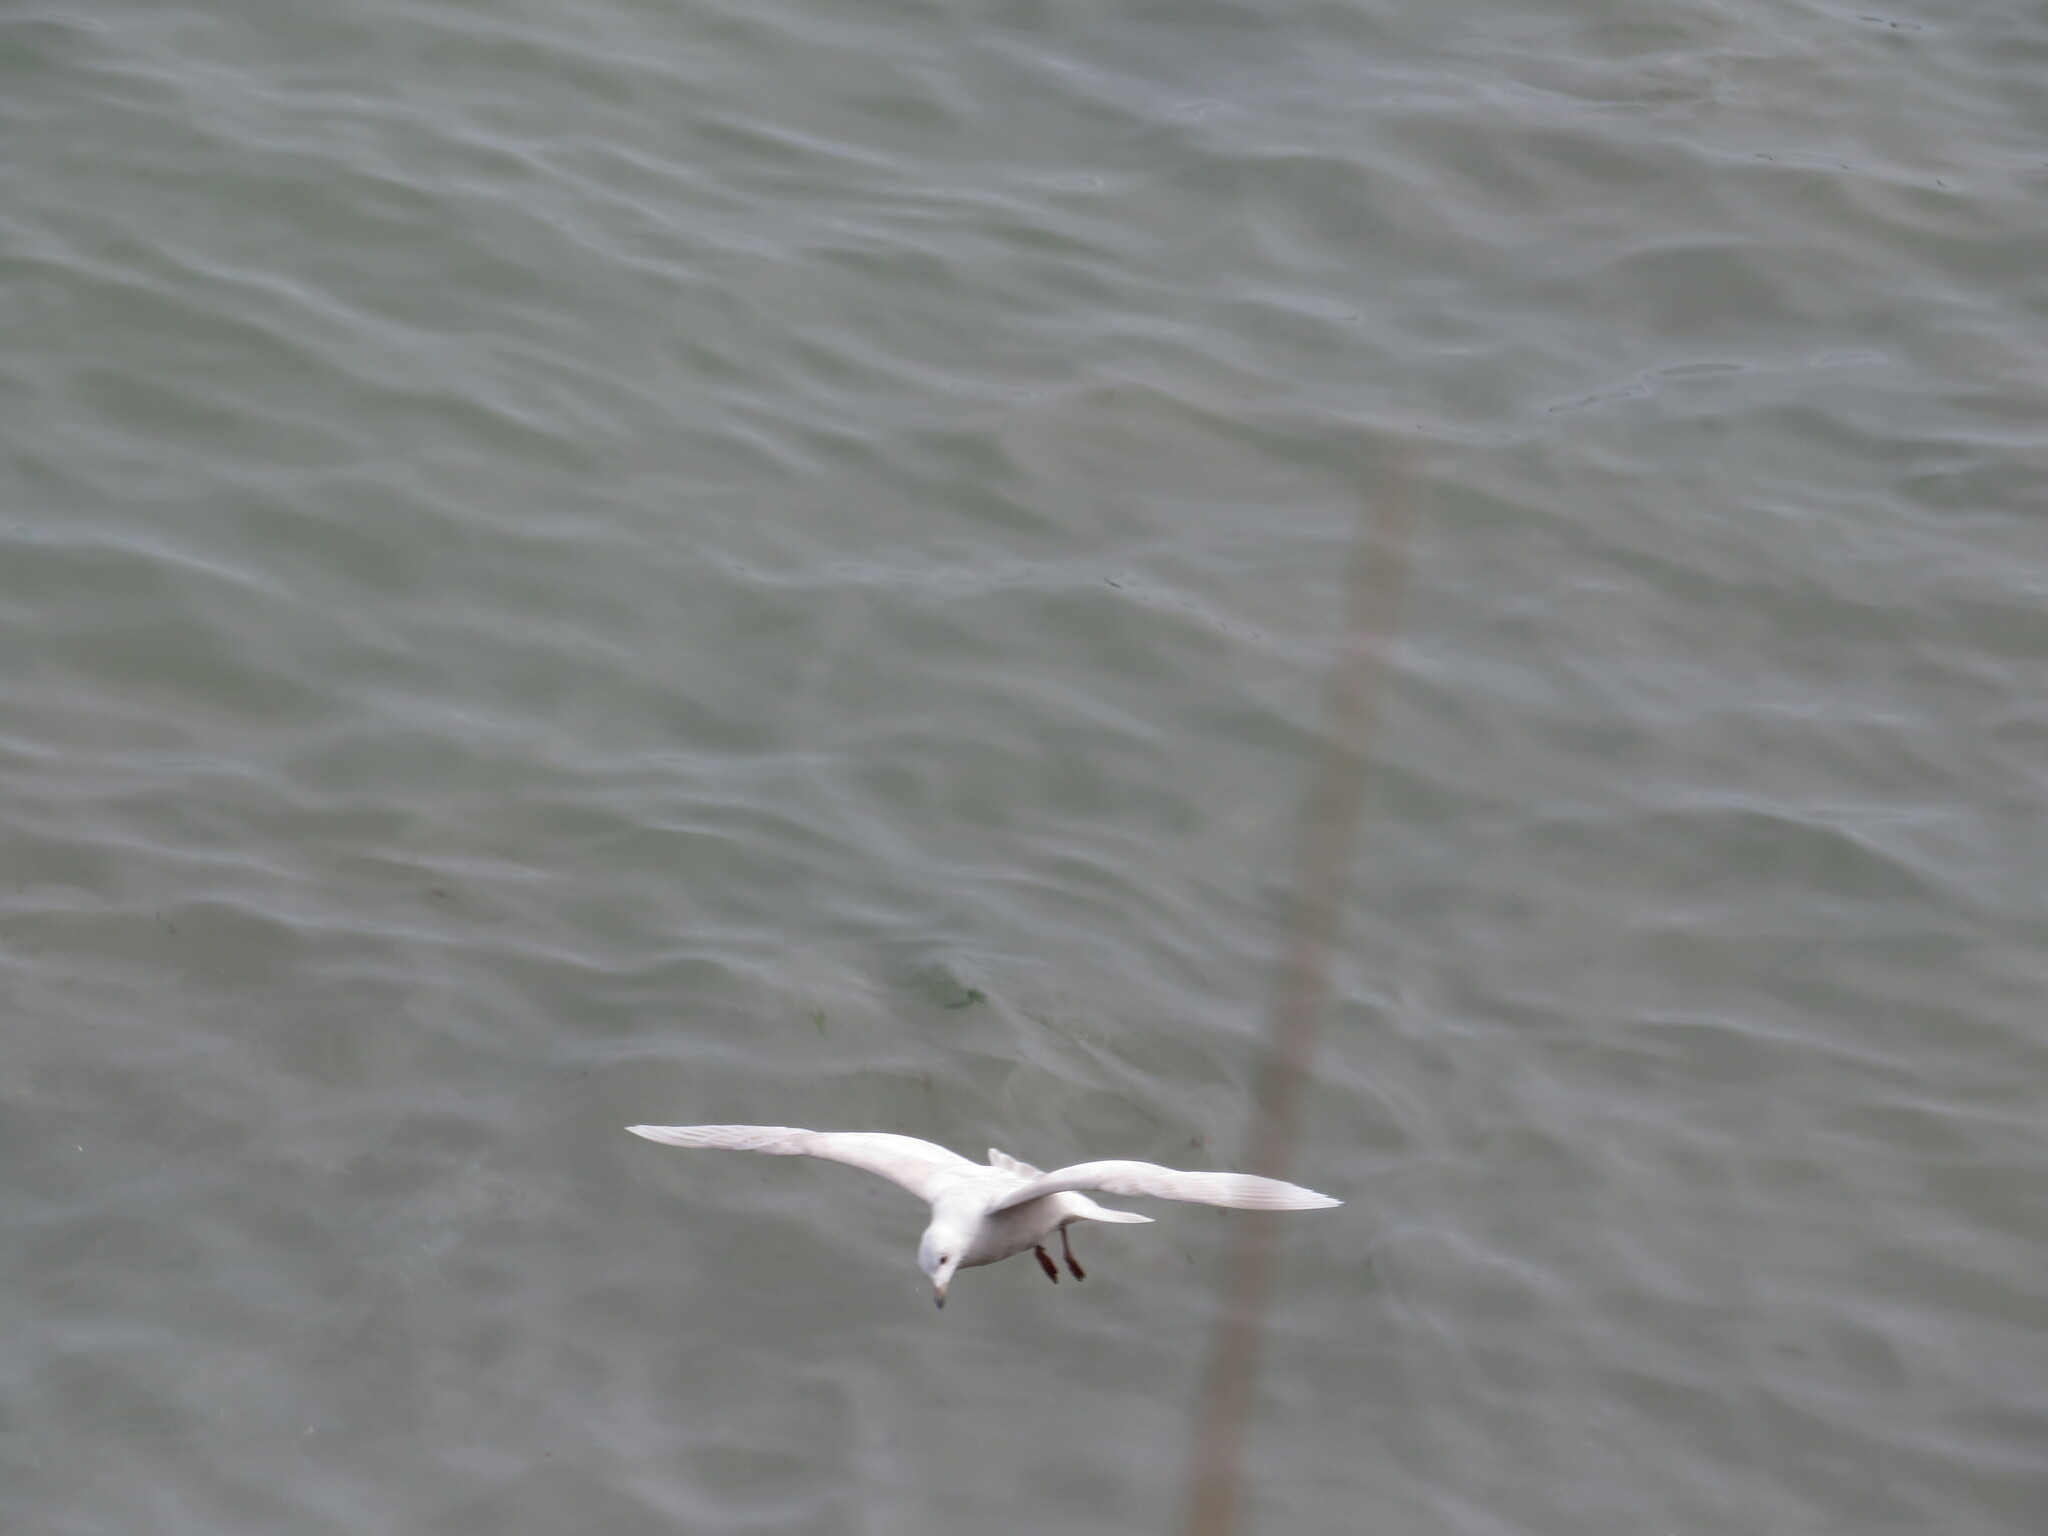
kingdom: Animalia
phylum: Chordata
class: Aves
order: Charadriiformes
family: Laridae
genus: Larus
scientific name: Larus glaucoides
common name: Iceland gull
